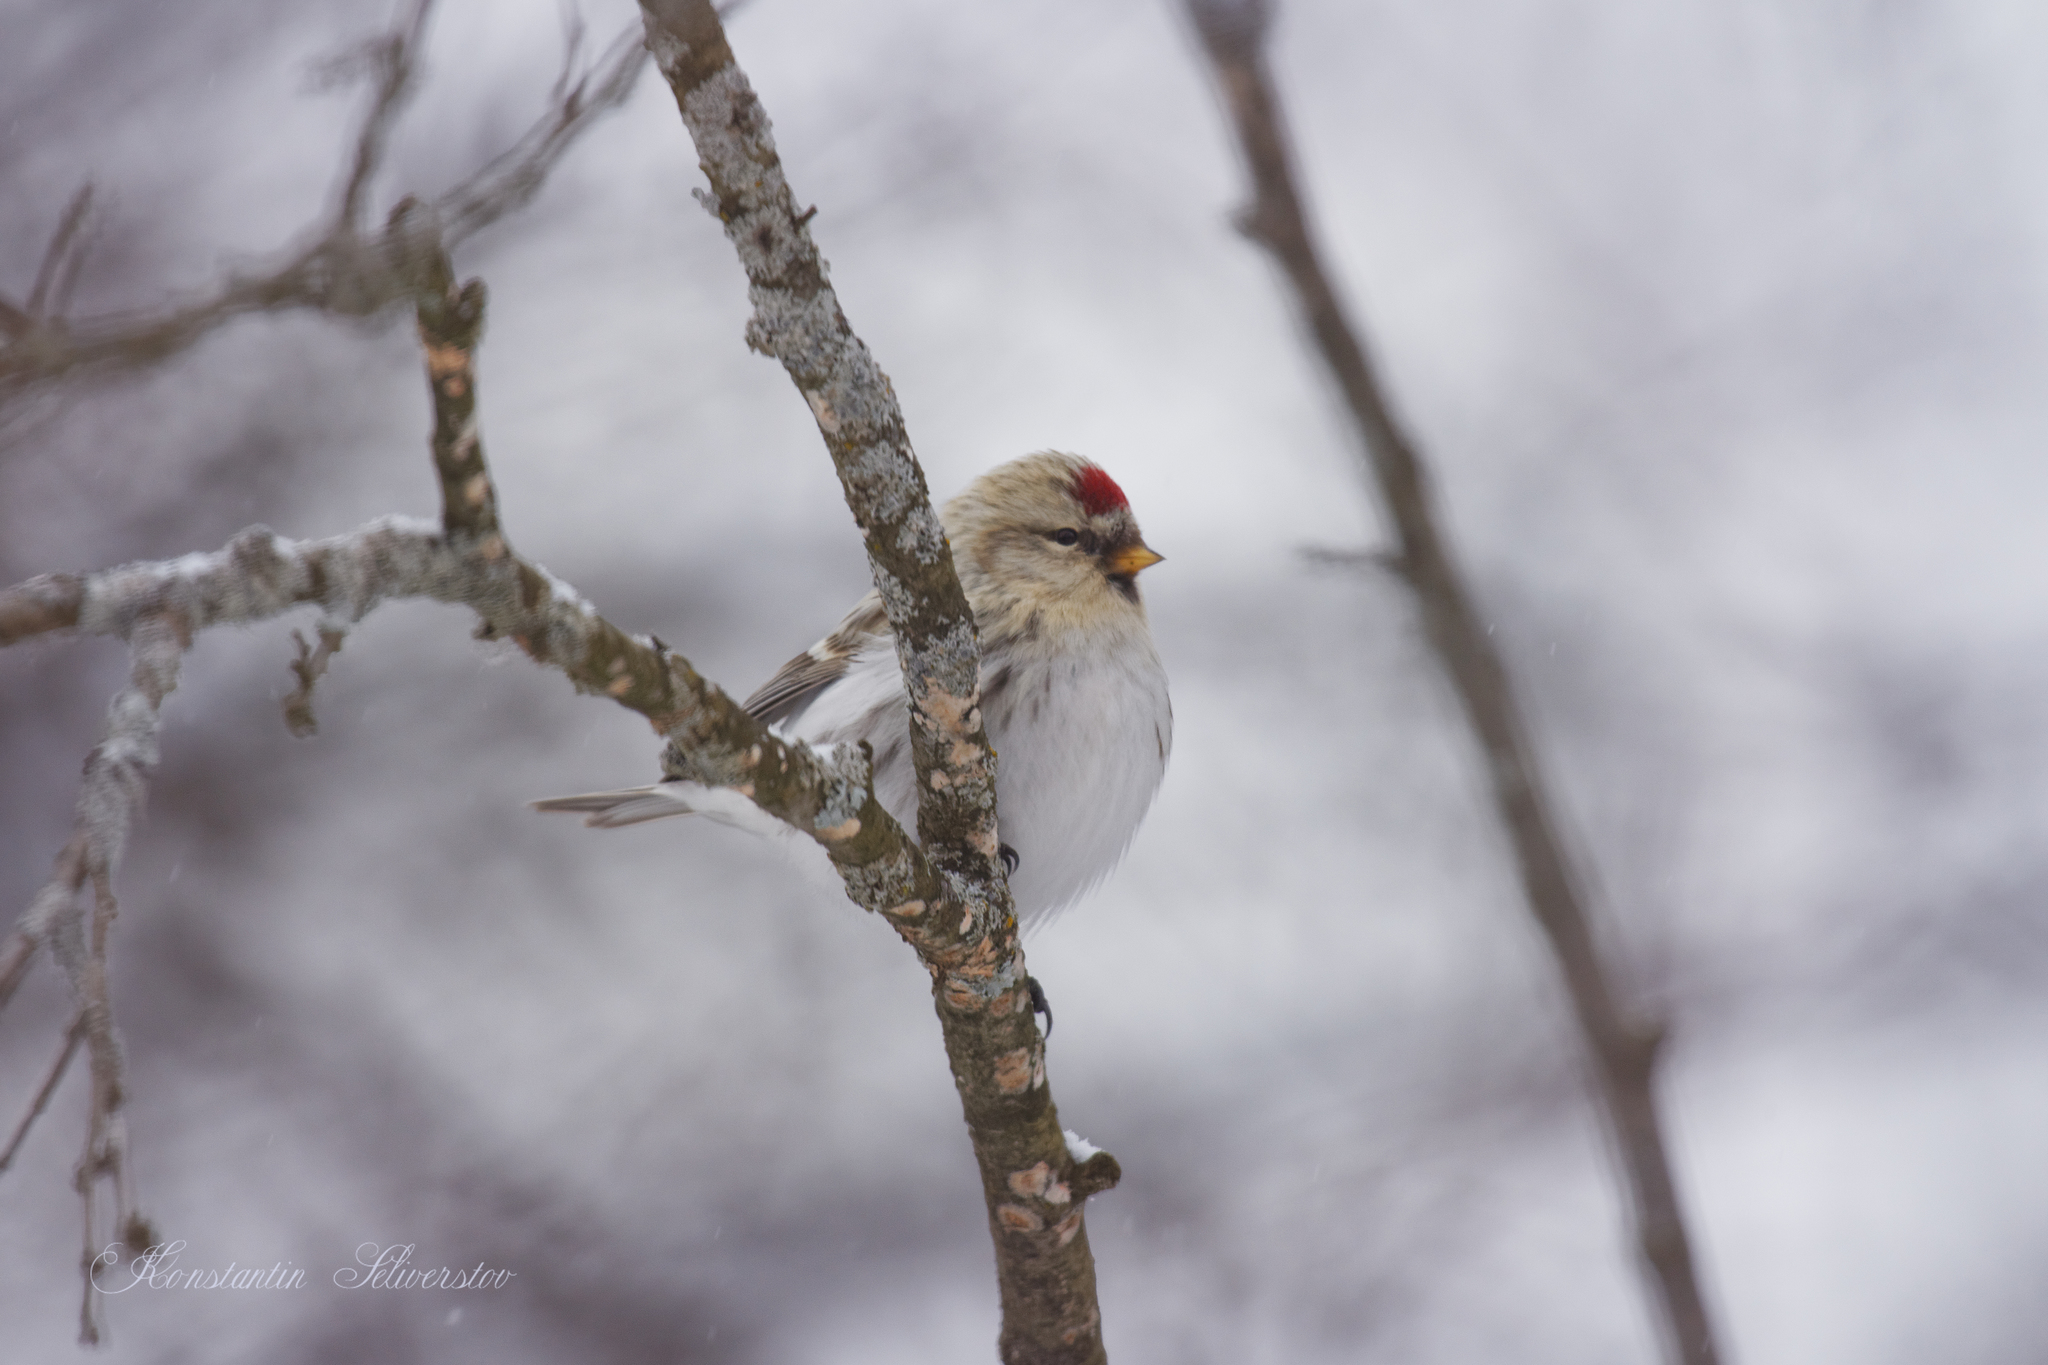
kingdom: Animalia
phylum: Chordata
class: Aves
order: Passeriformes
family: Fringillidae
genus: Acanthis
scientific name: Acanthis flammea
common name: Common redpoll
